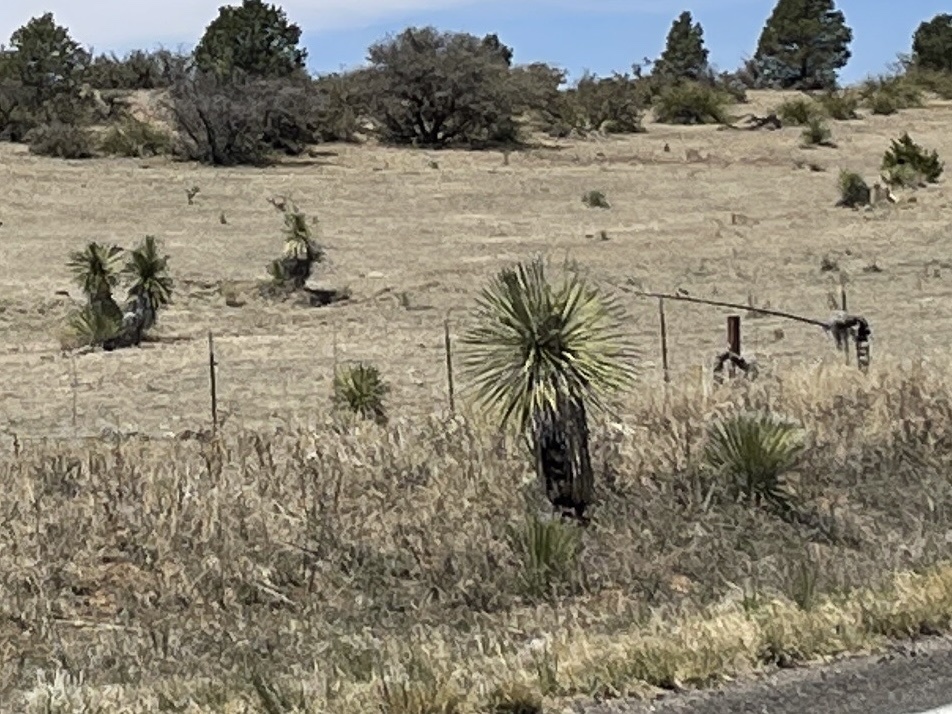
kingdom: Plantae
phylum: Tracheophyta
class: Liliopsida
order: Asparagales
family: Asparagaceae
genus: Yucca
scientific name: Yucca elata
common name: Palmella
